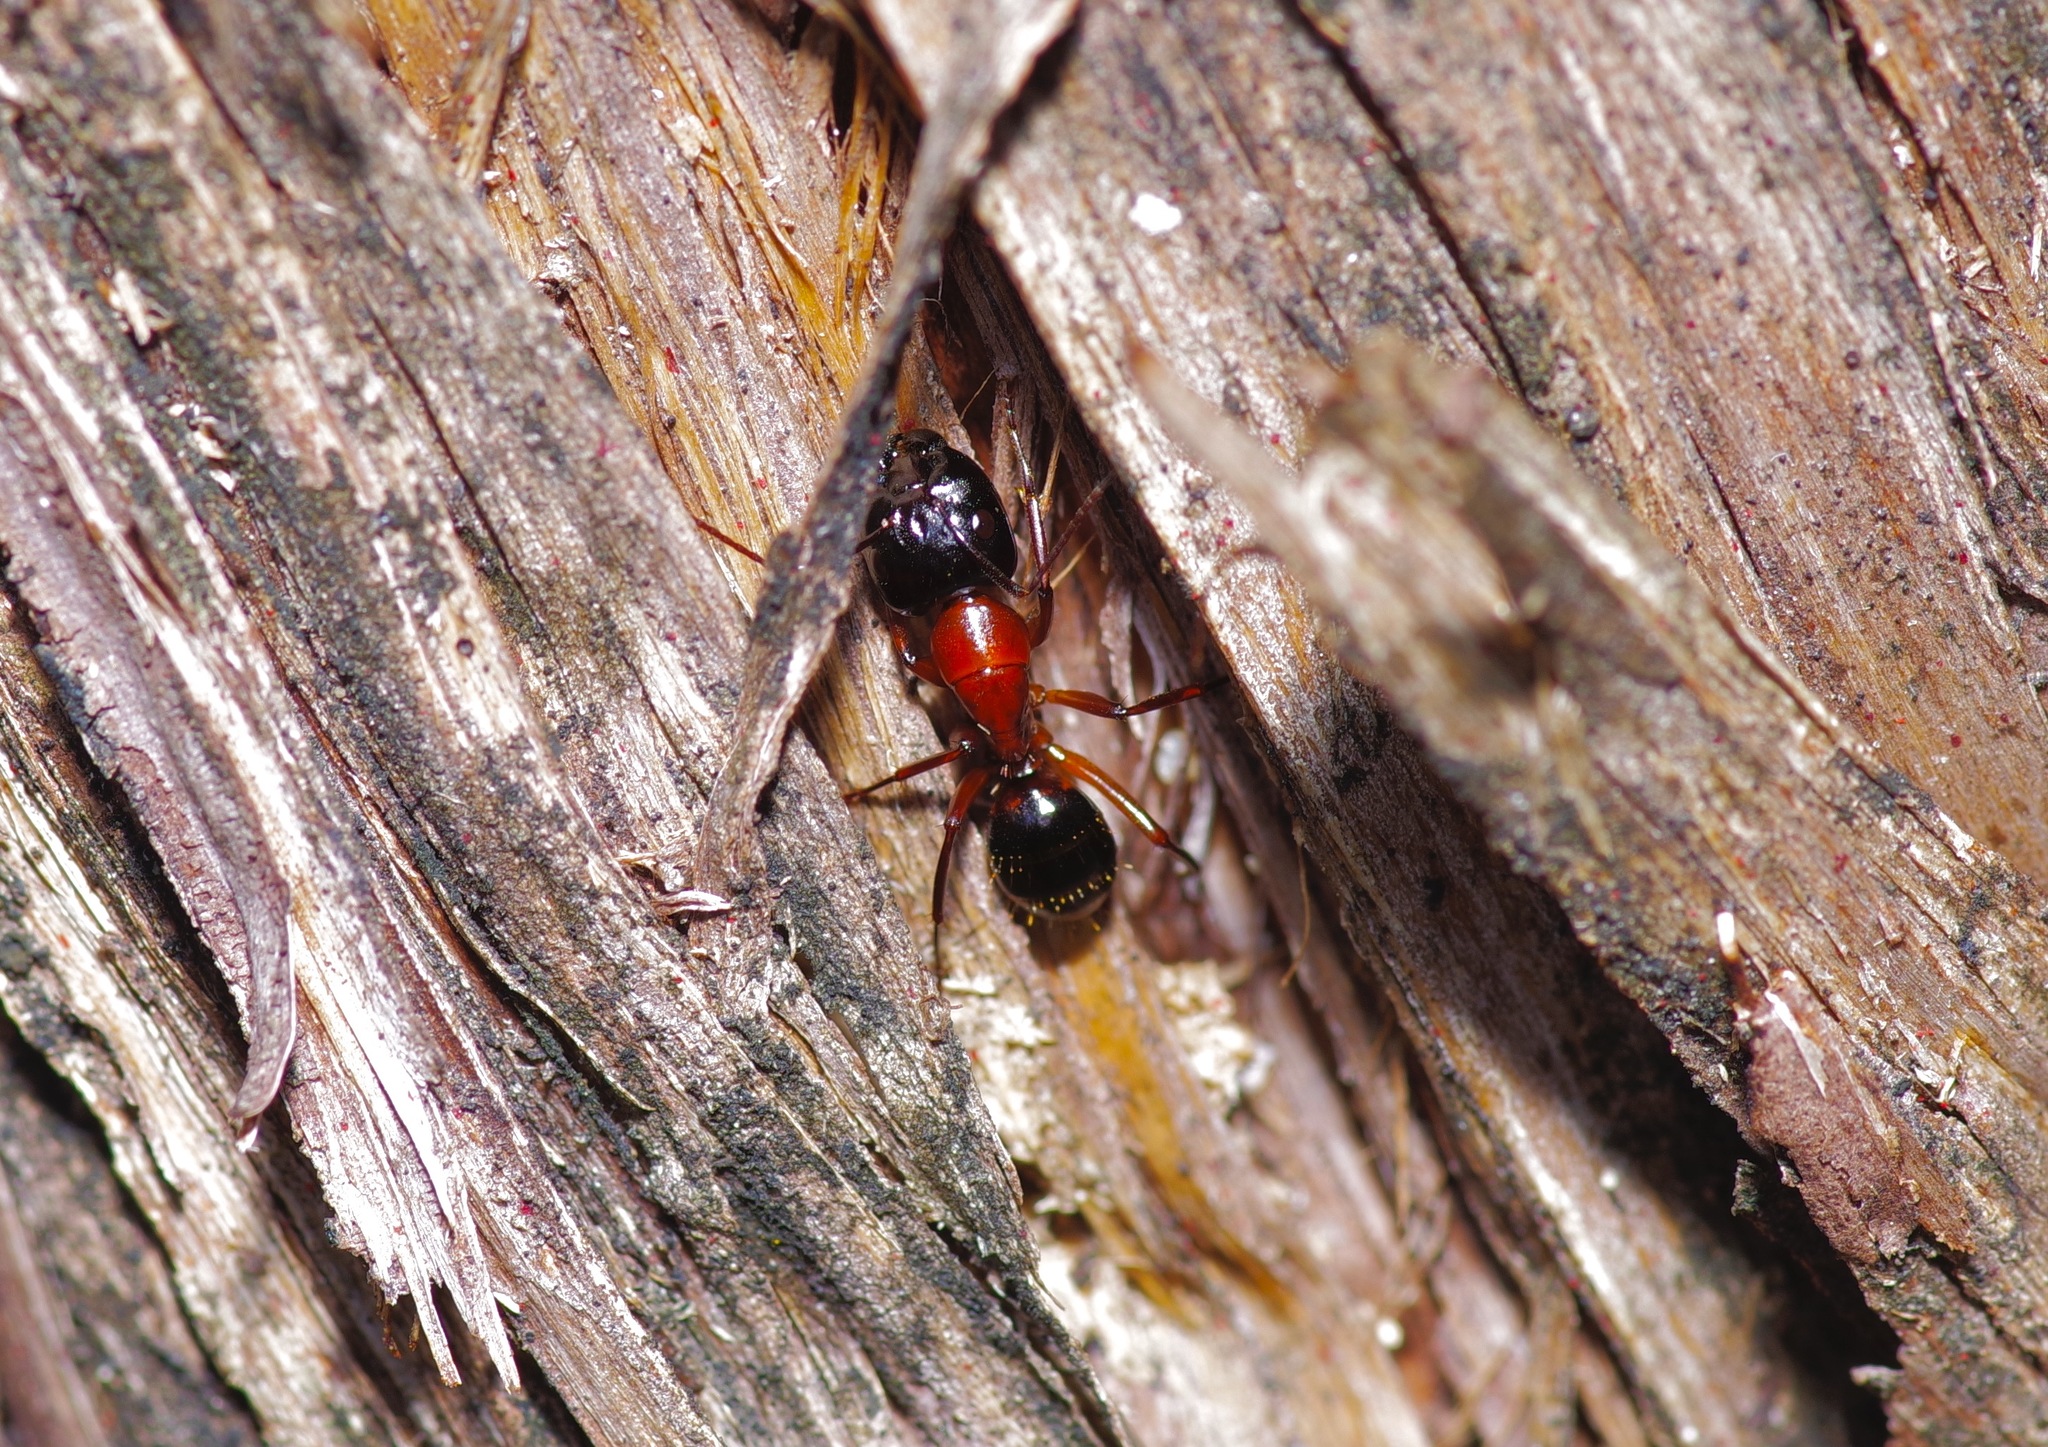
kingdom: Animalia
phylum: Arthropoda
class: Insecta
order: Hymenoptera
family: Formicidae
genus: Camponotus
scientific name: Camponotus texanus
